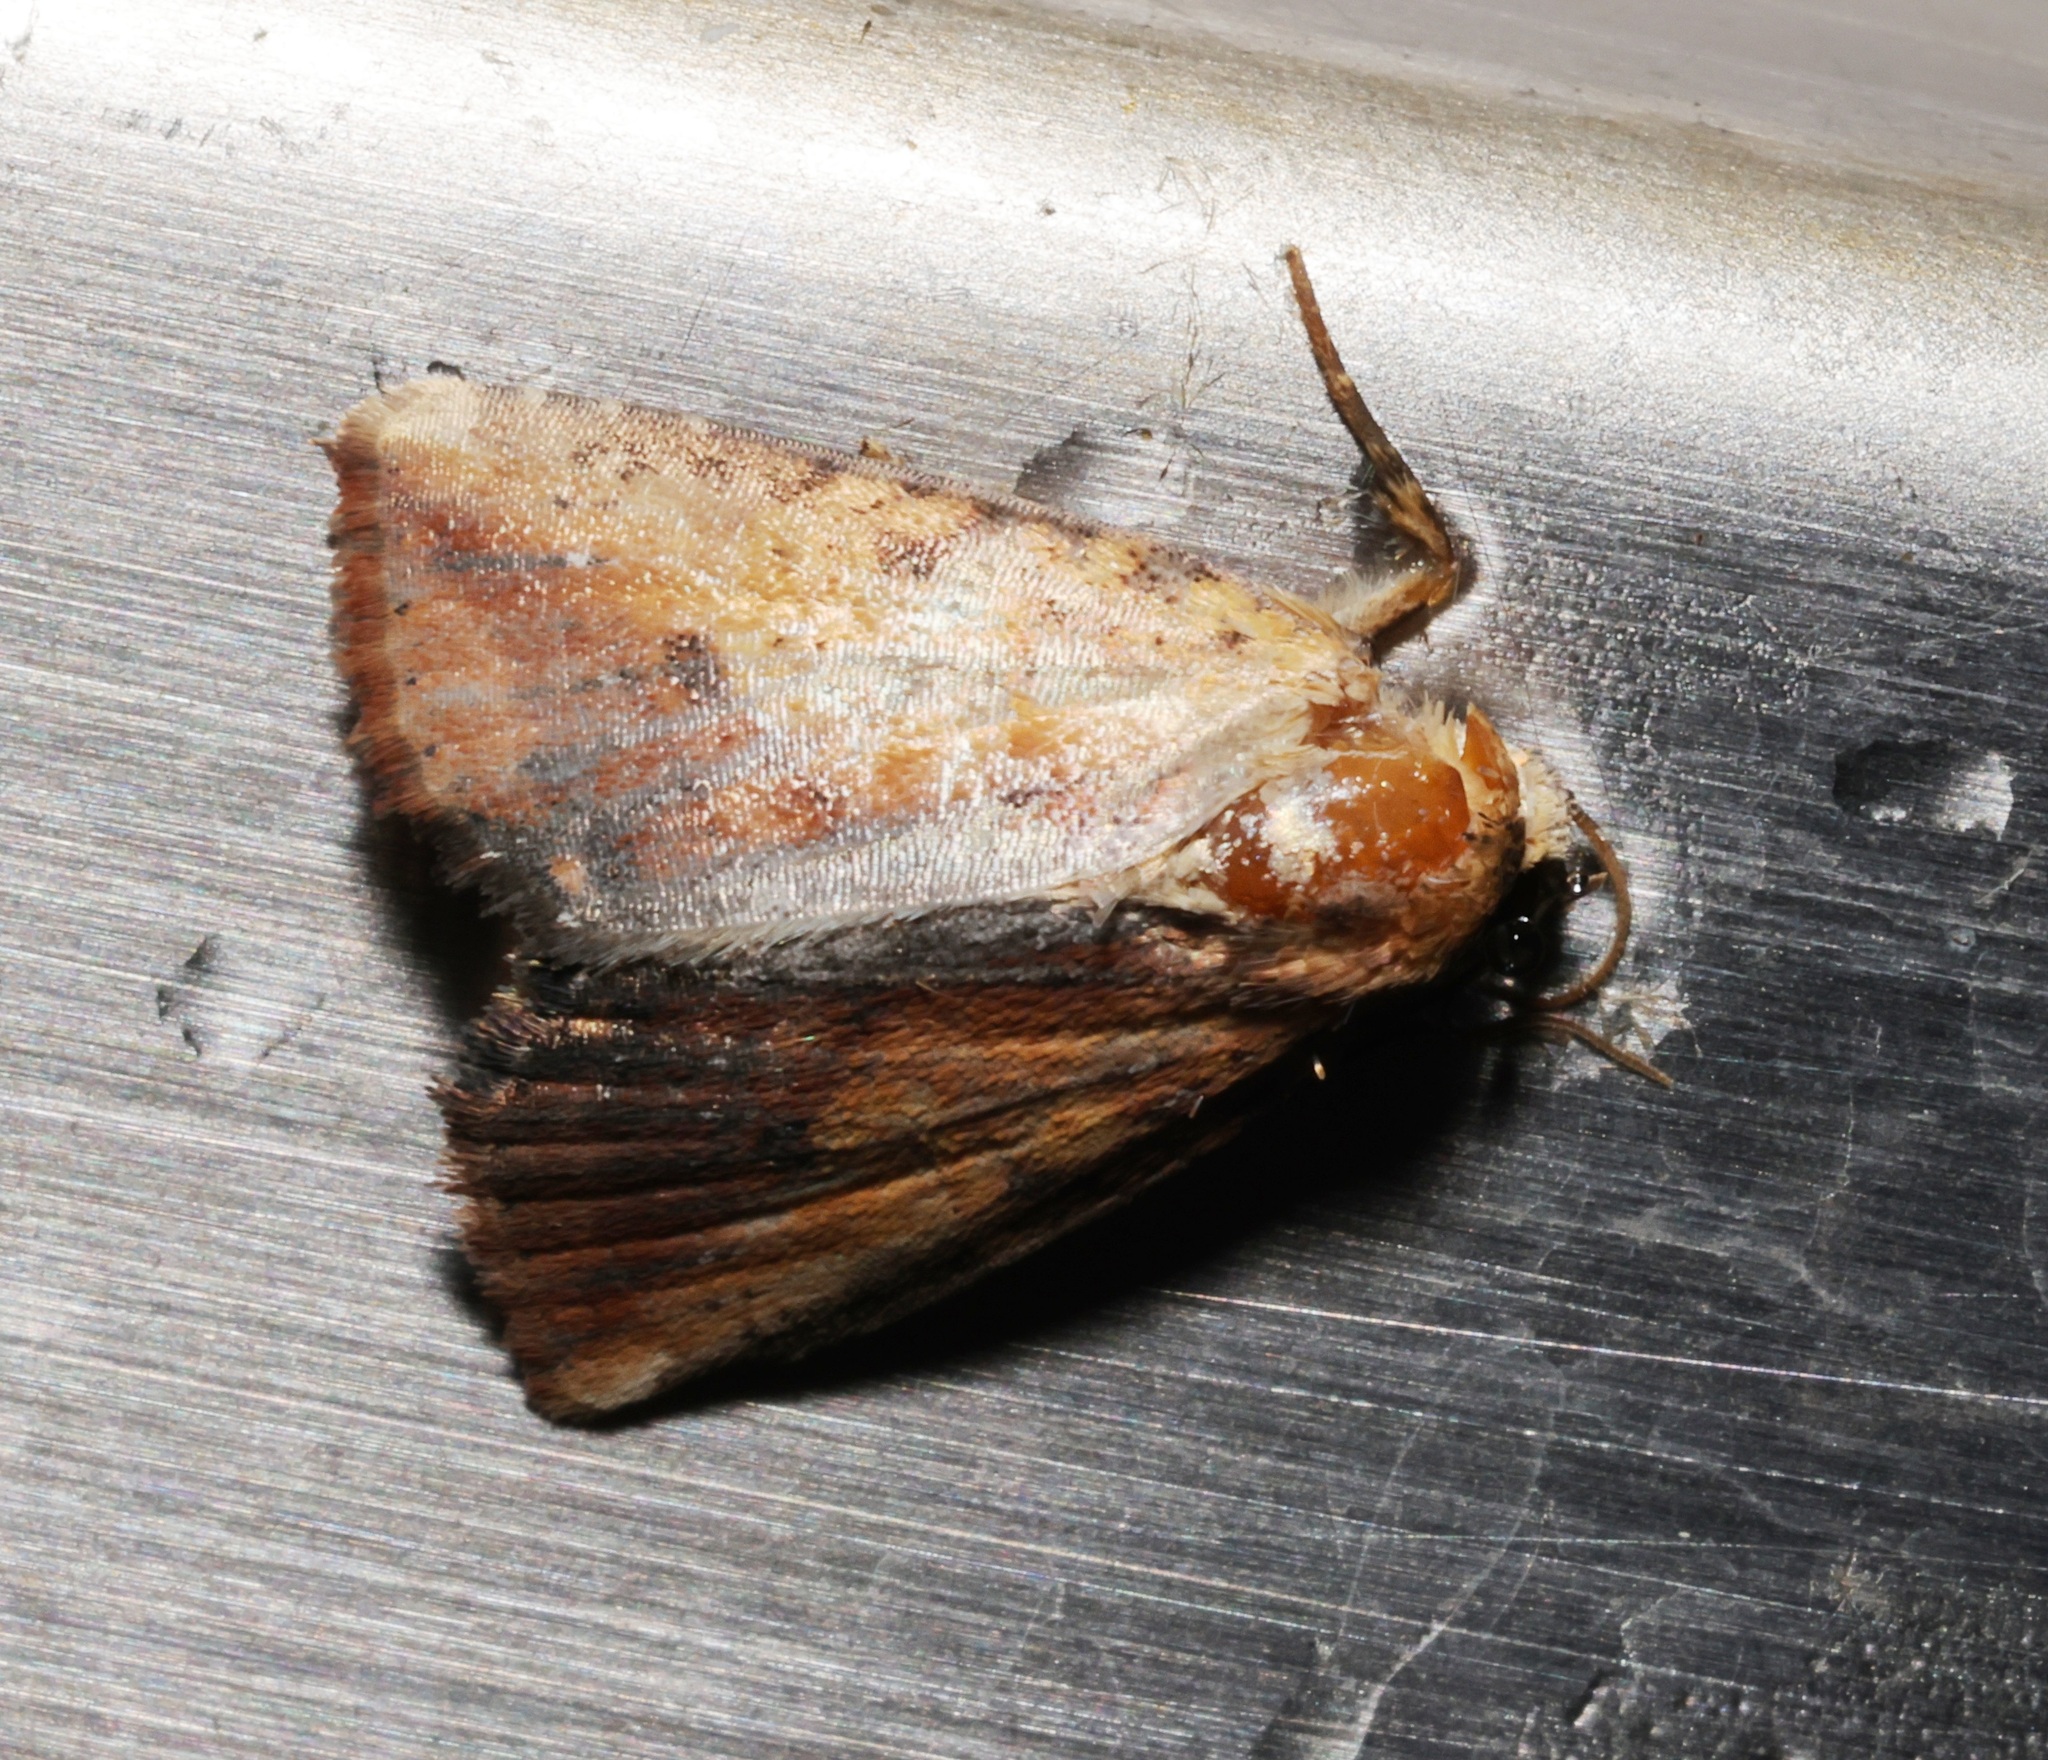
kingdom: Animalia
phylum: Arthropoda
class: Insecta
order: Lepidoptera
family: Noctuidae
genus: Bagada
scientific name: Bagada spicea
